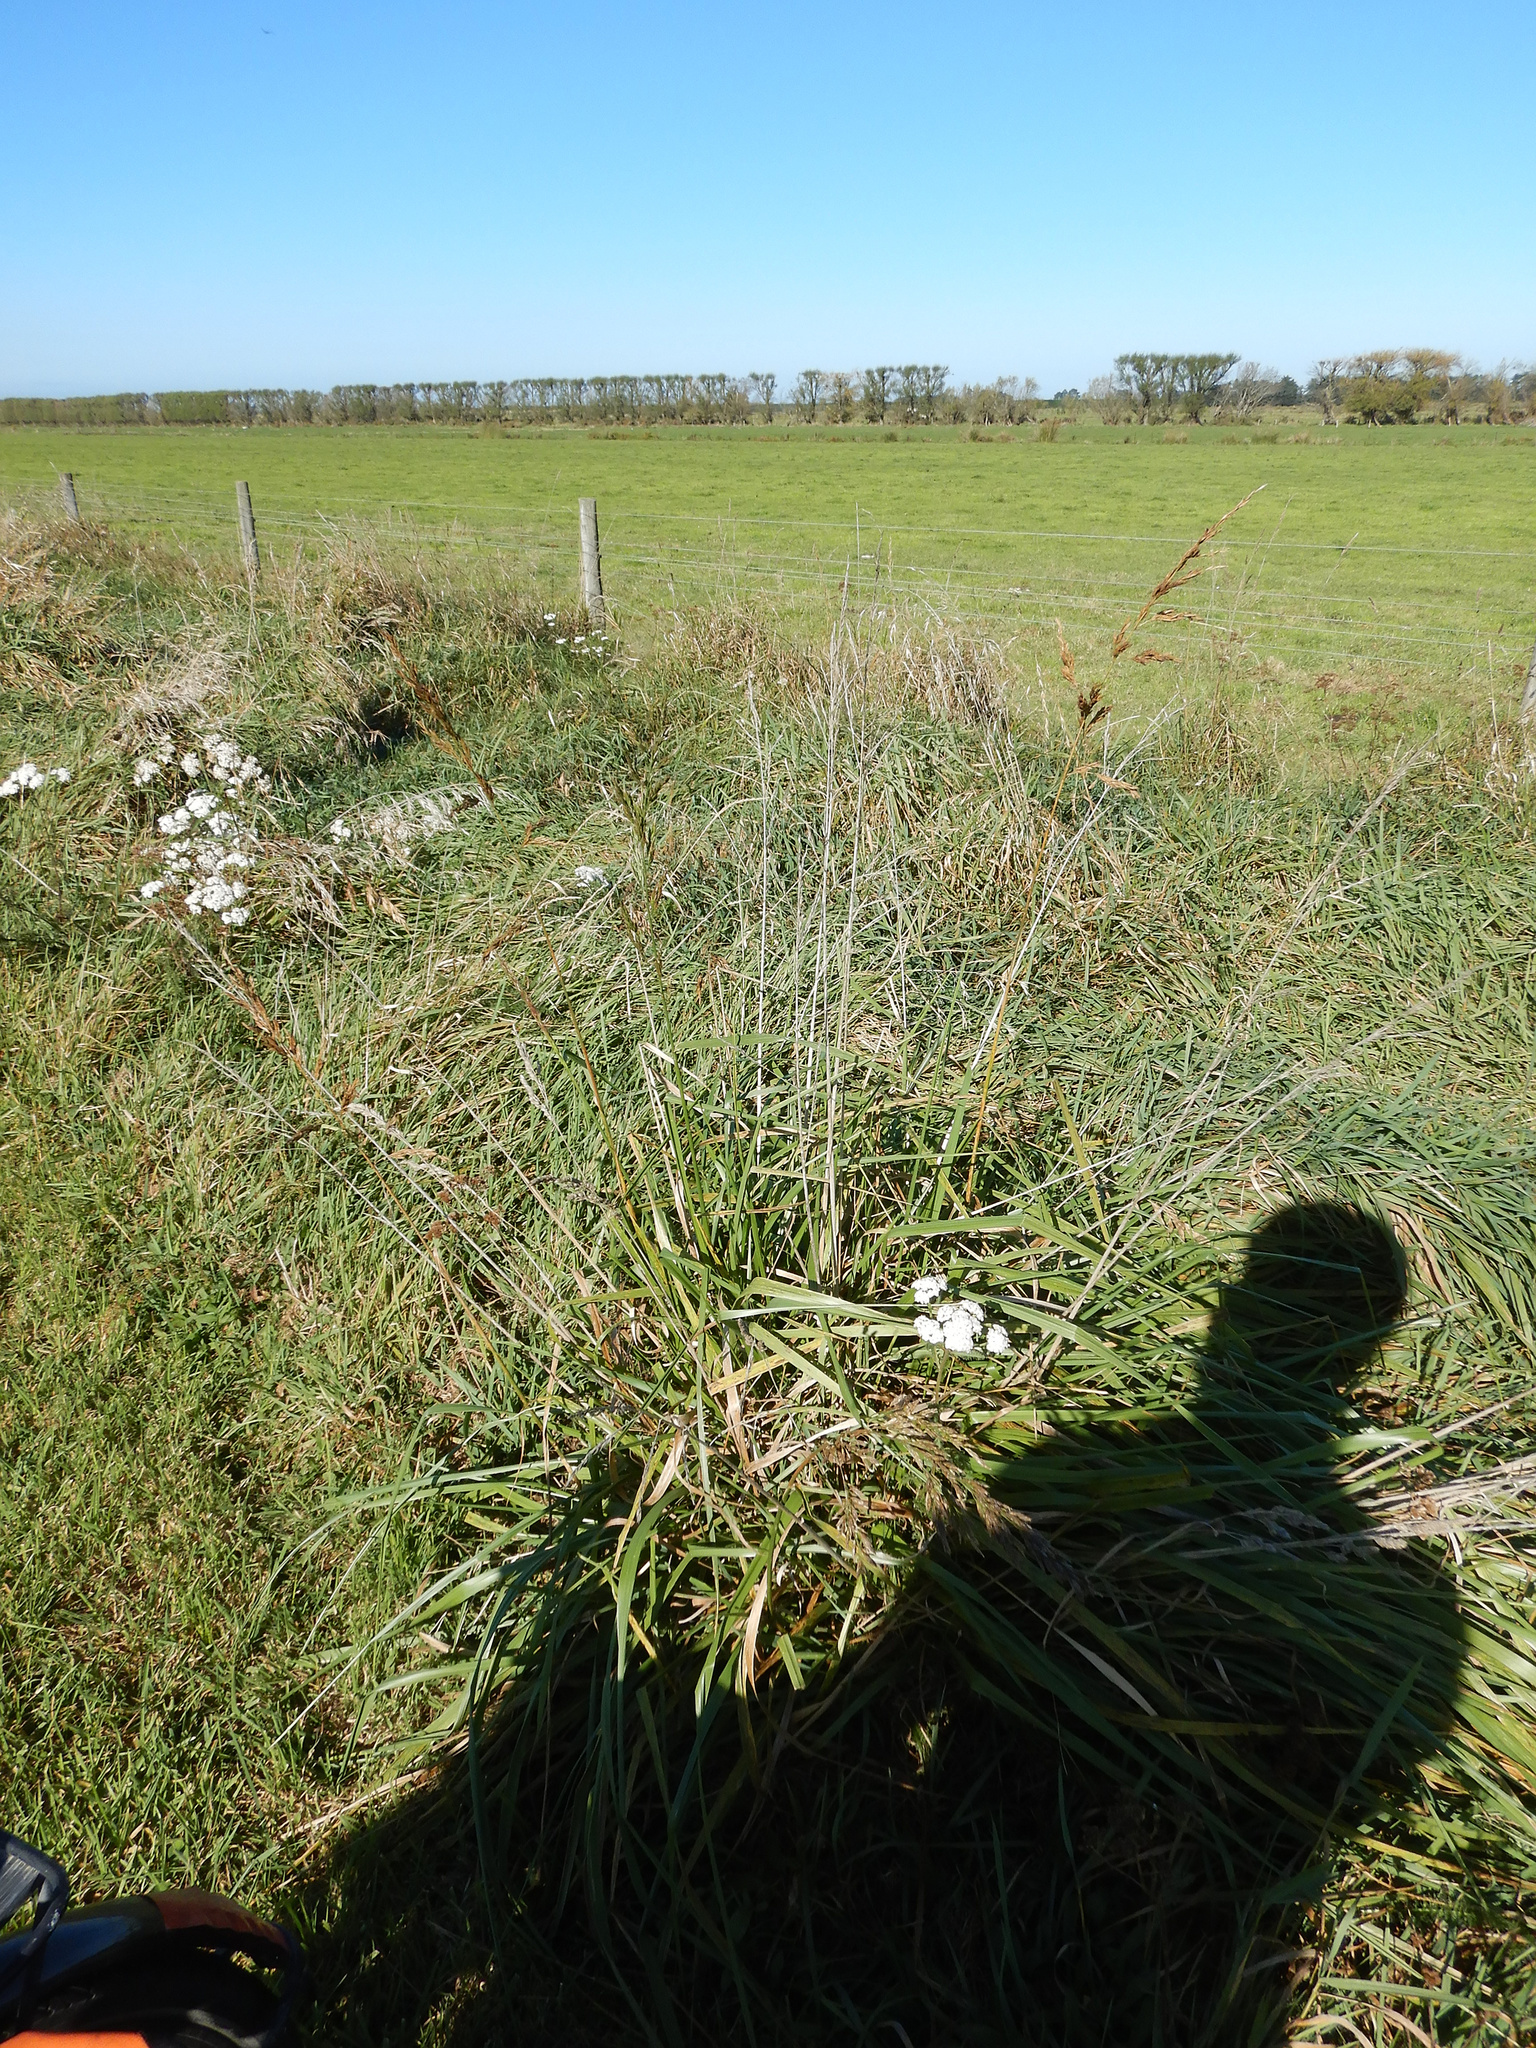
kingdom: Plantae
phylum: Tracheophyta
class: Liliopsida
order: Poales
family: Poaceae
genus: Lolium
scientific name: Lolium arundinaceum
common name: Reed fescue
